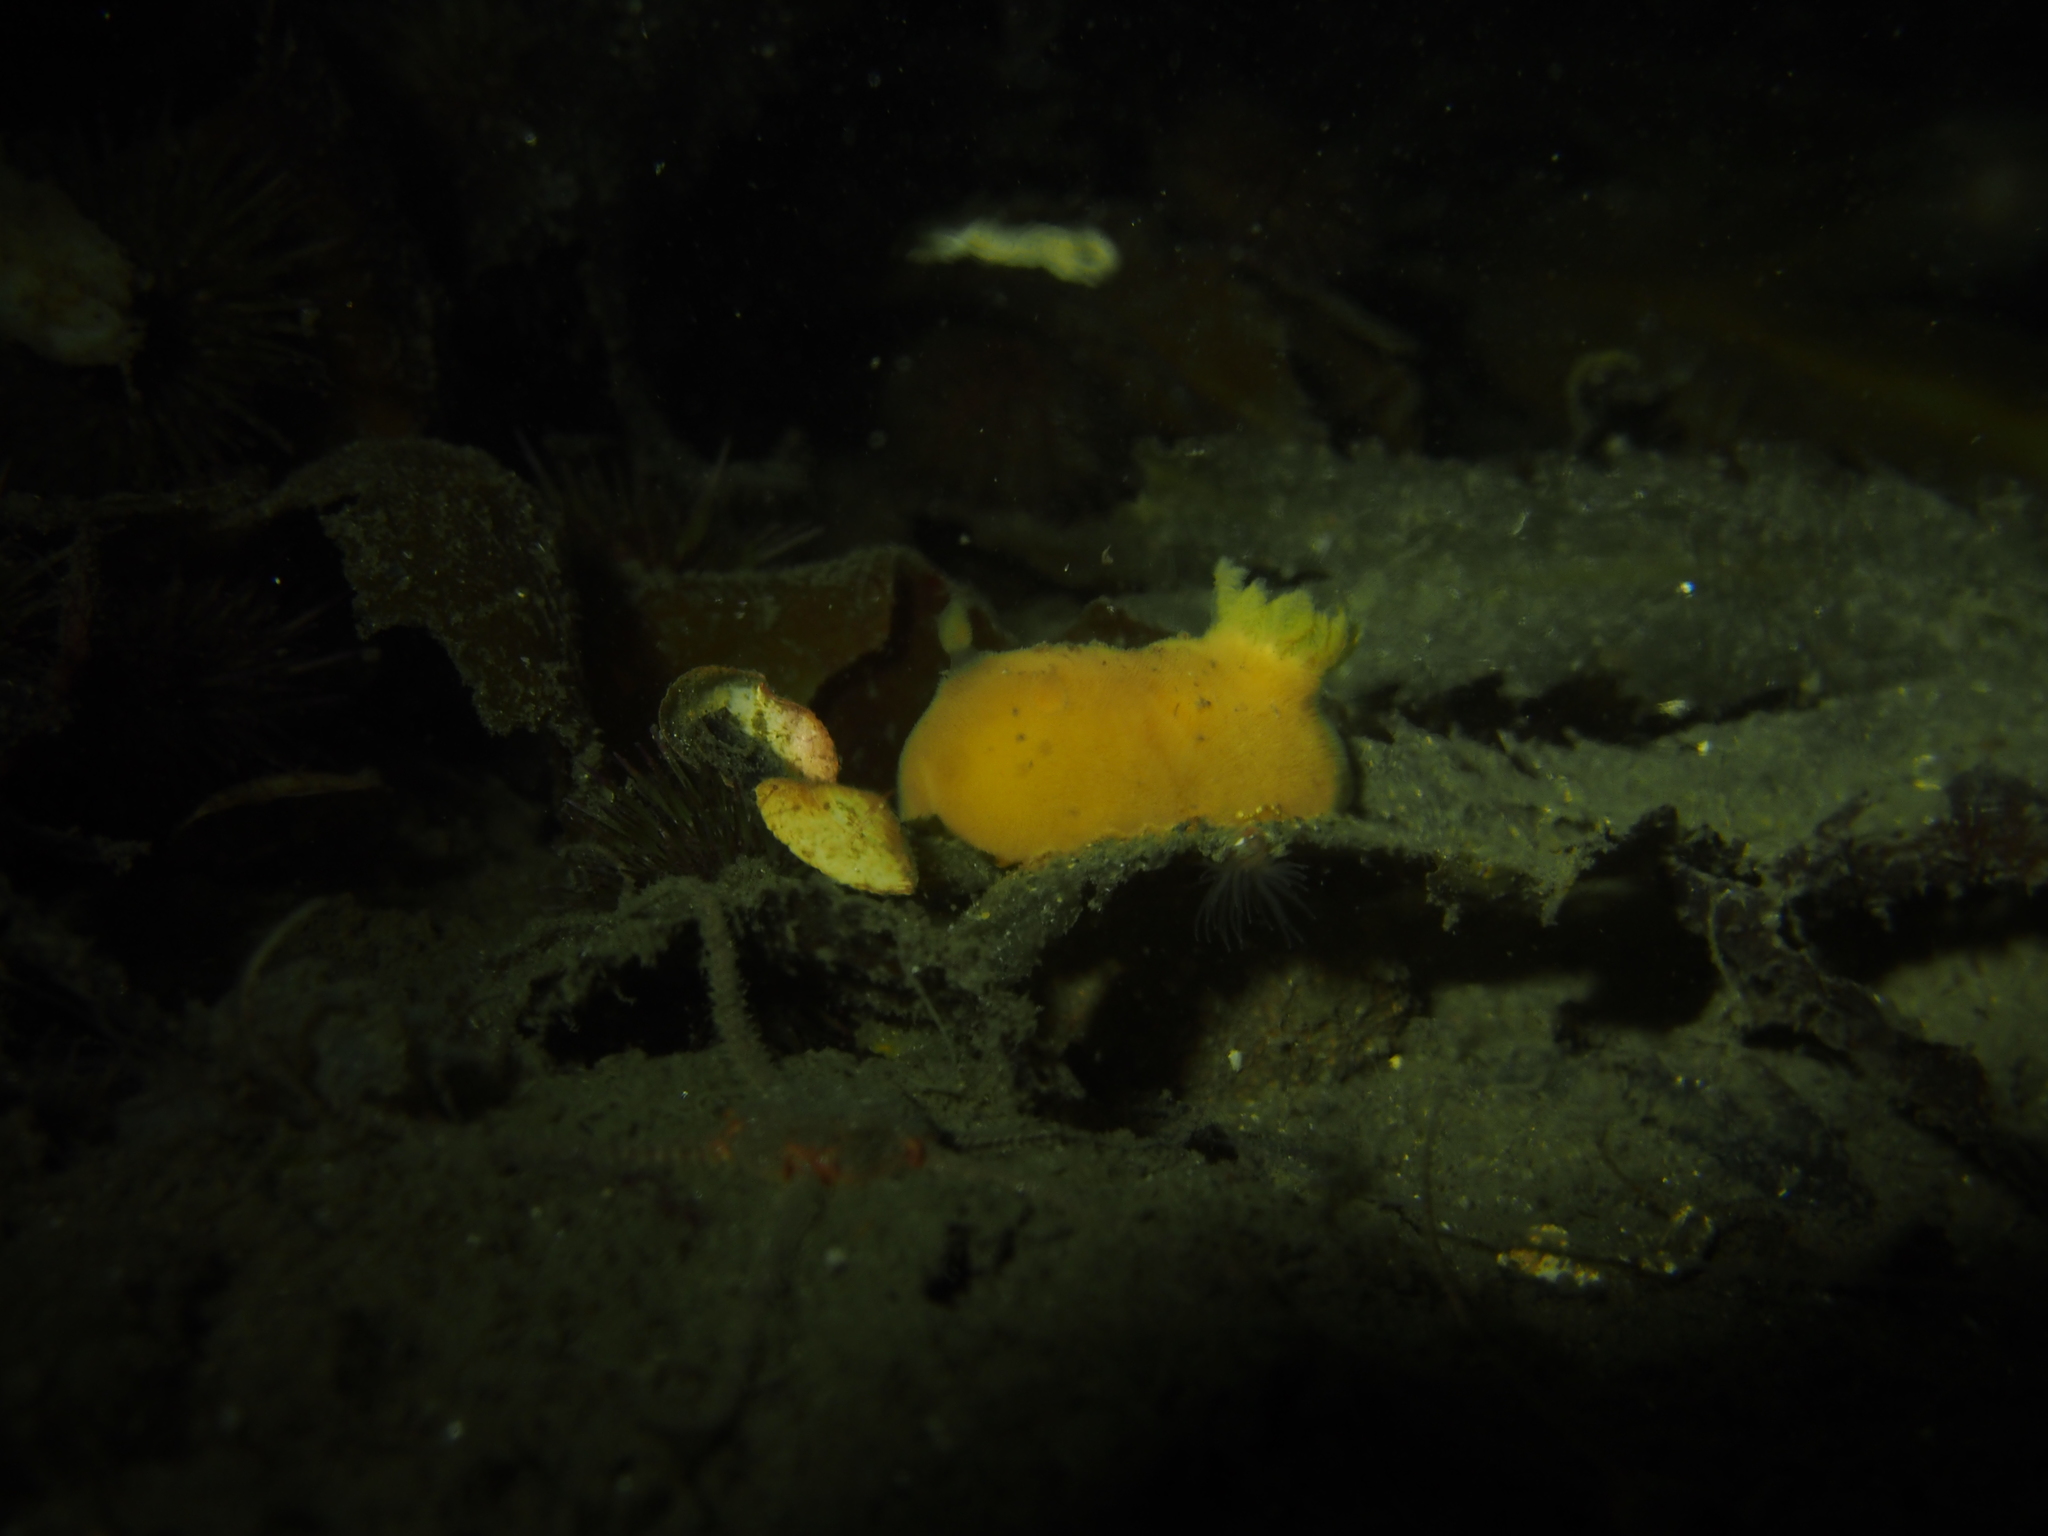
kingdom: Animalia
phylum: Mollusca
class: Gastropoda
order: Nudibranchia
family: Discodorididae
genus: Jorunna
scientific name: Jorunna tomentosa
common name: Grey sea slug
